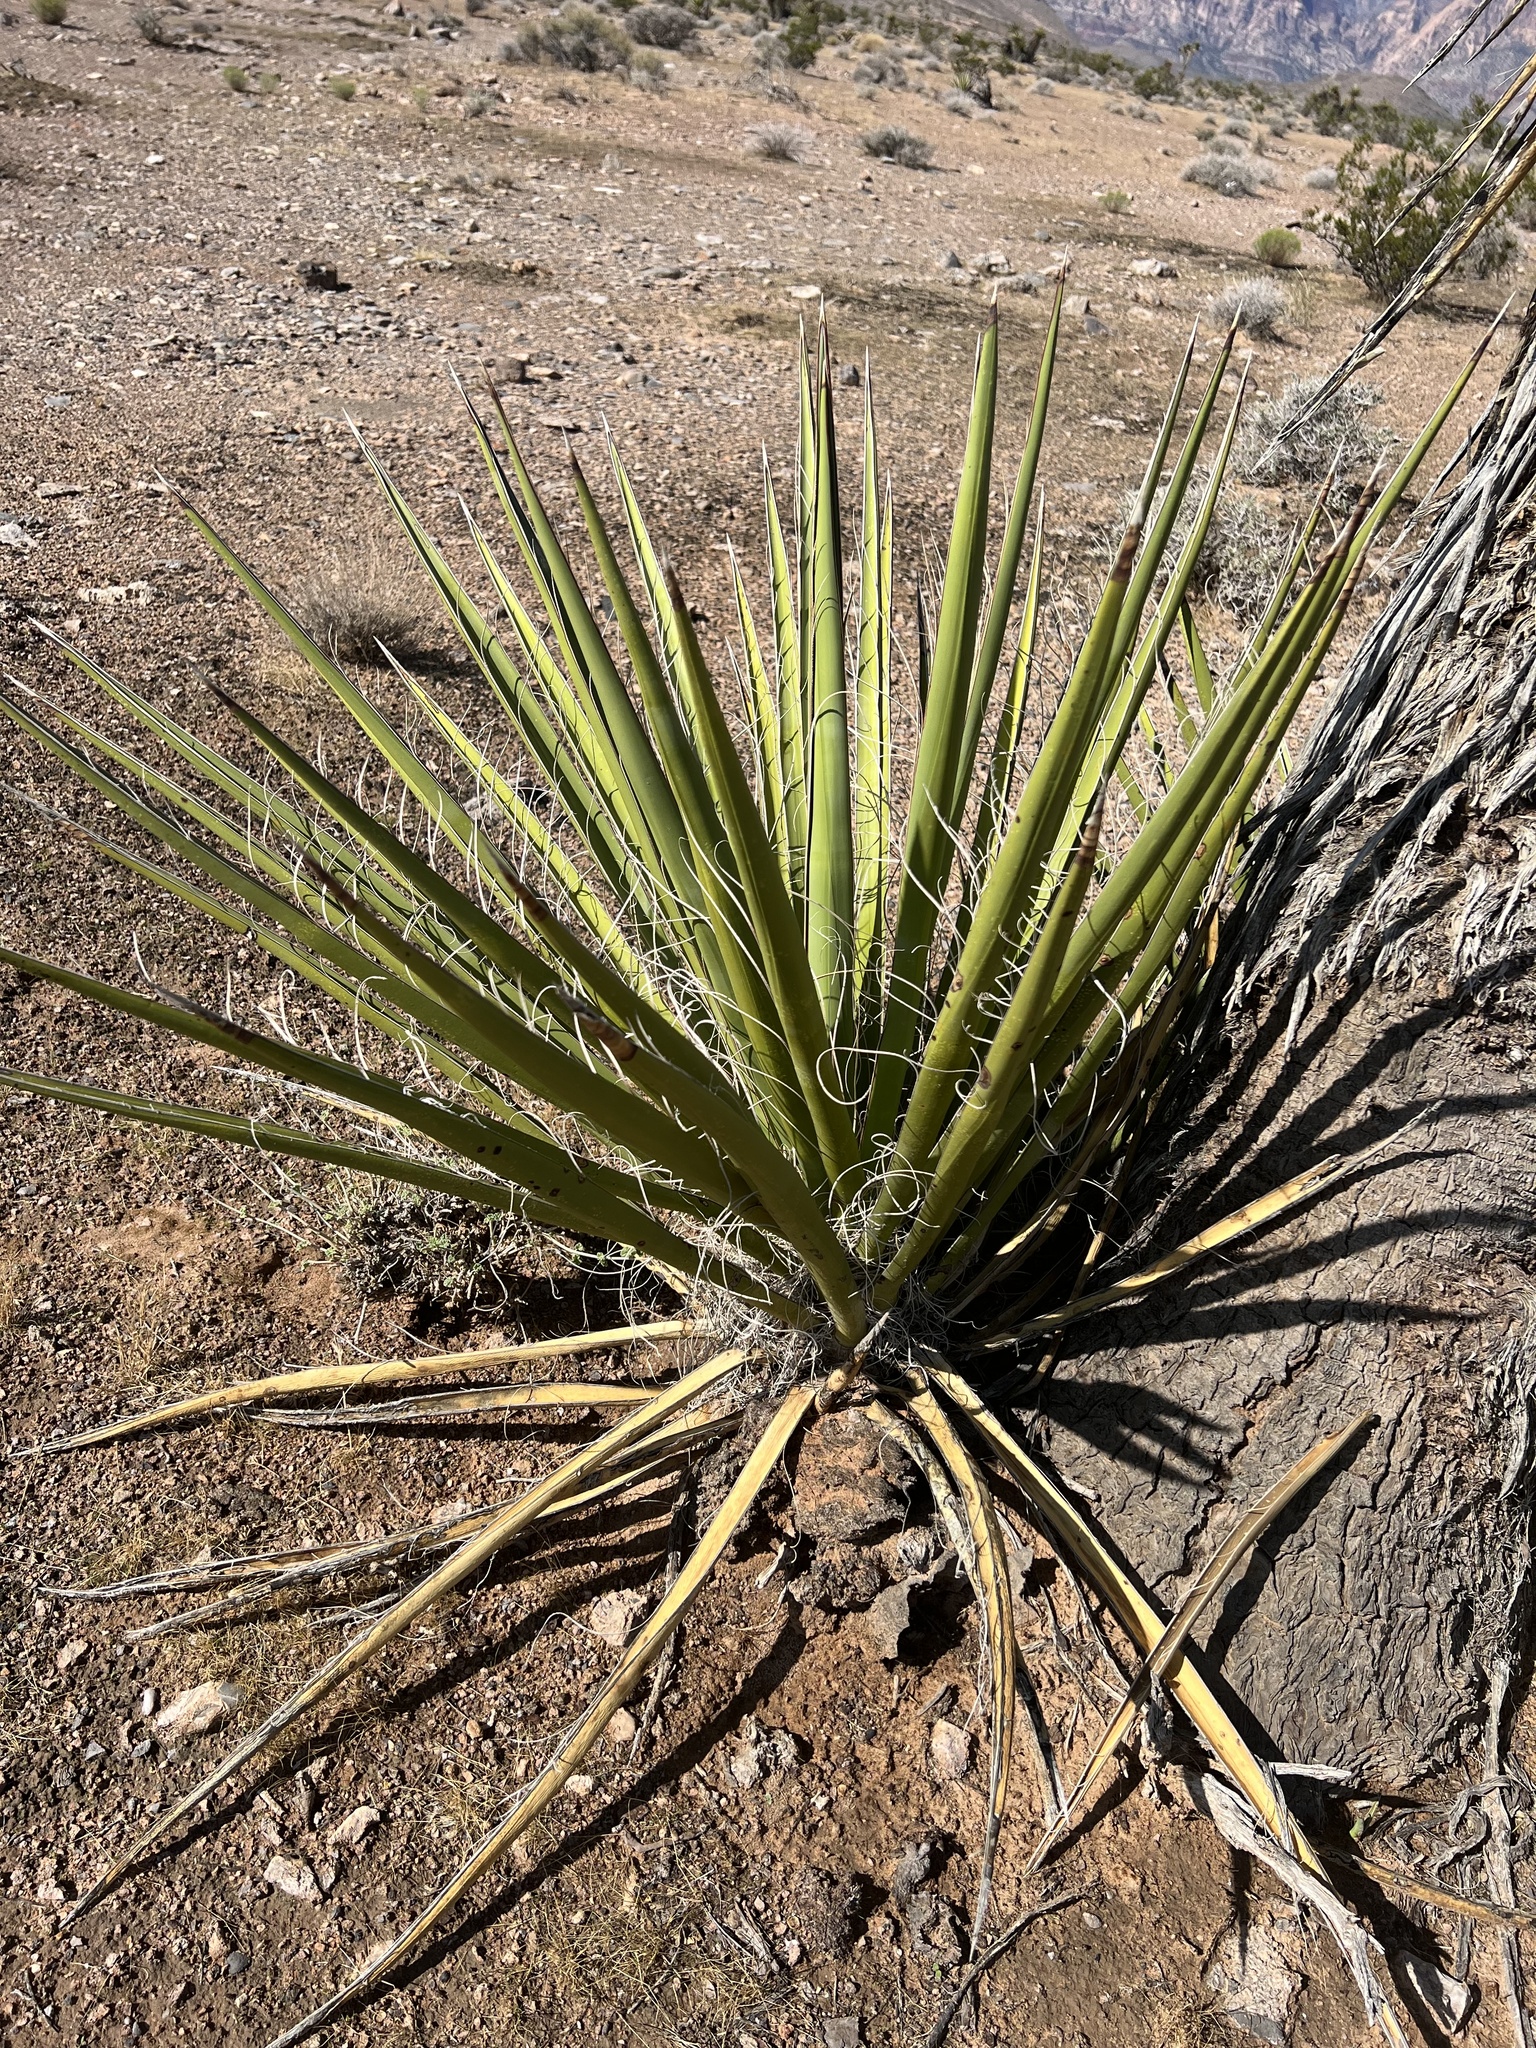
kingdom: Plantae
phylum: Tracheophyta
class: Liliopsida
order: Asparagales
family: Asparagaceae
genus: Yucca
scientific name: Yucca baccata
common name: Banana yucca
